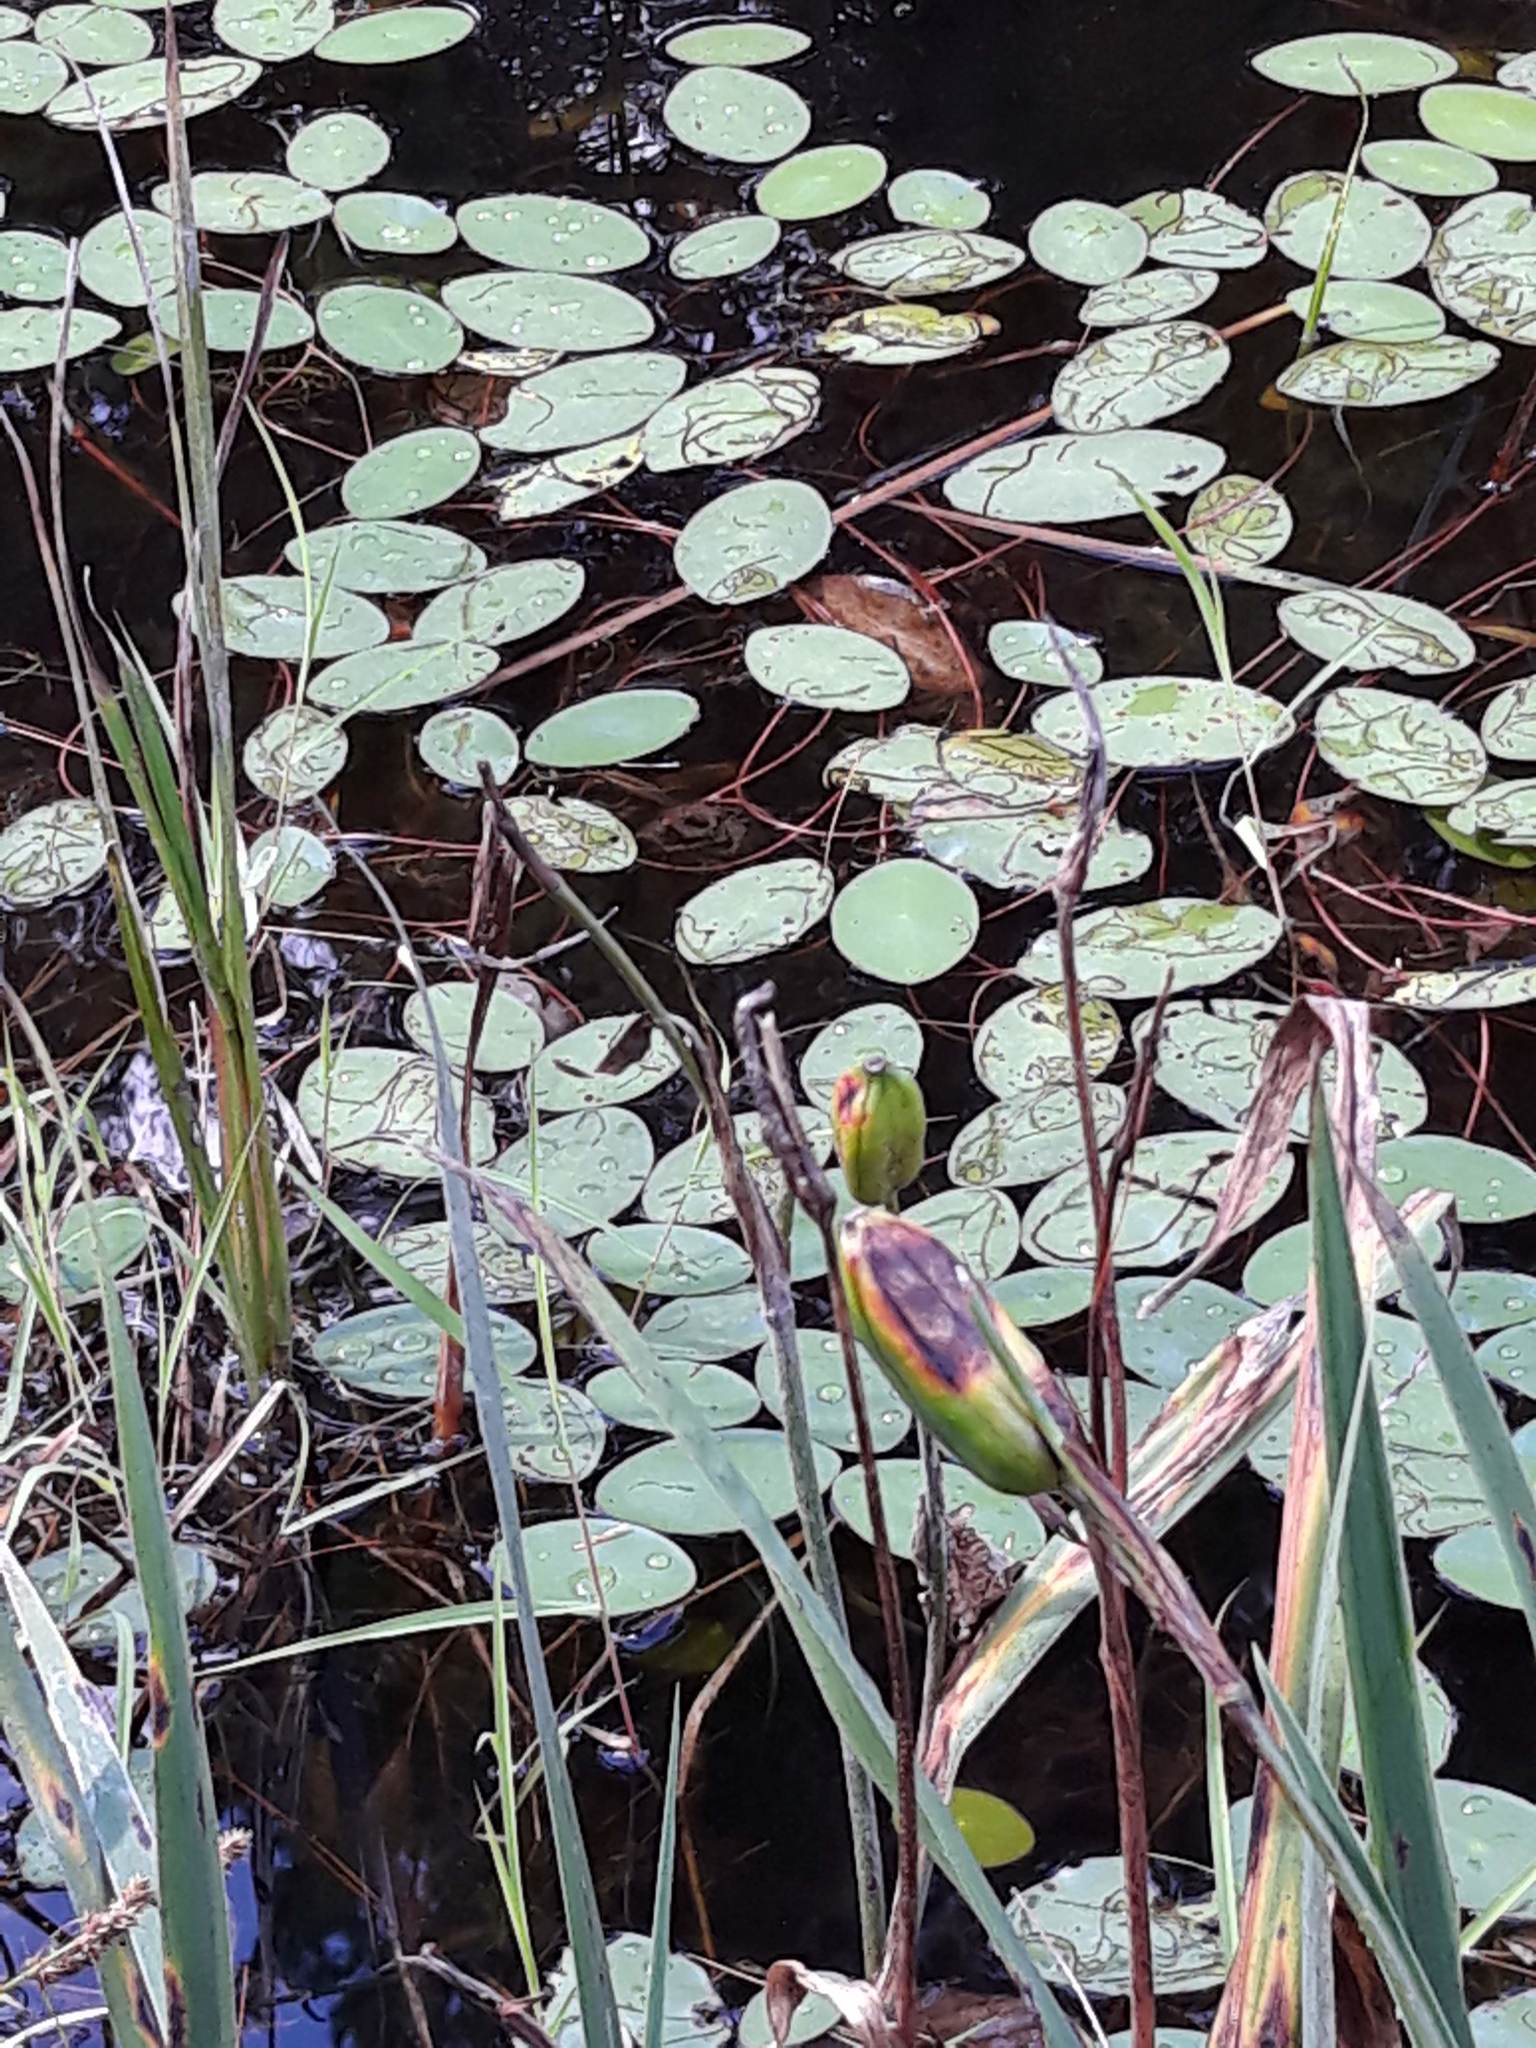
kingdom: Plantae
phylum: Tracheophyta
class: Magnoliopsida
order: Nymphaeales
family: Cabombaceae
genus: Brasenia
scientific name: Brasenia schreberi
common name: Water-shield
